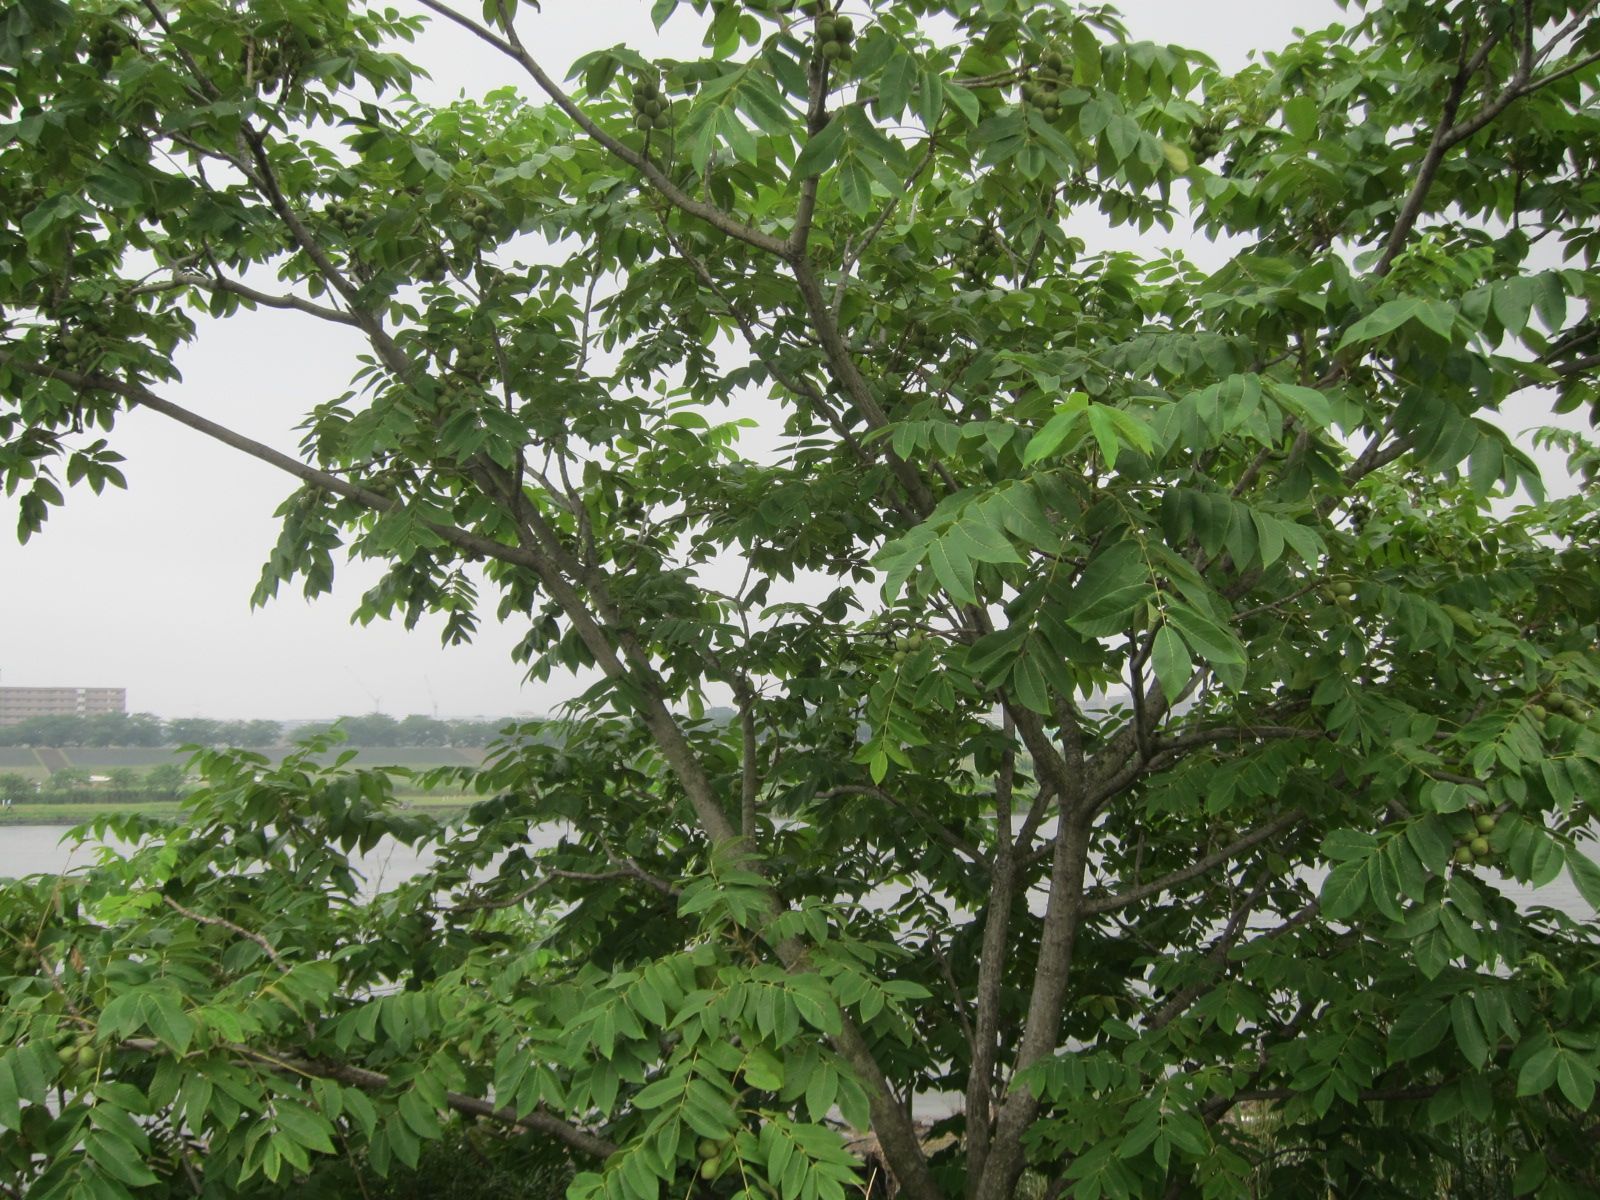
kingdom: Plantae
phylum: Tracheophyta
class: Magnoliopsida
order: Fagales
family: Juglandaceae
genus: Juglans
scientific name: Juglans ailantifolia
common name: Japanese walnut
